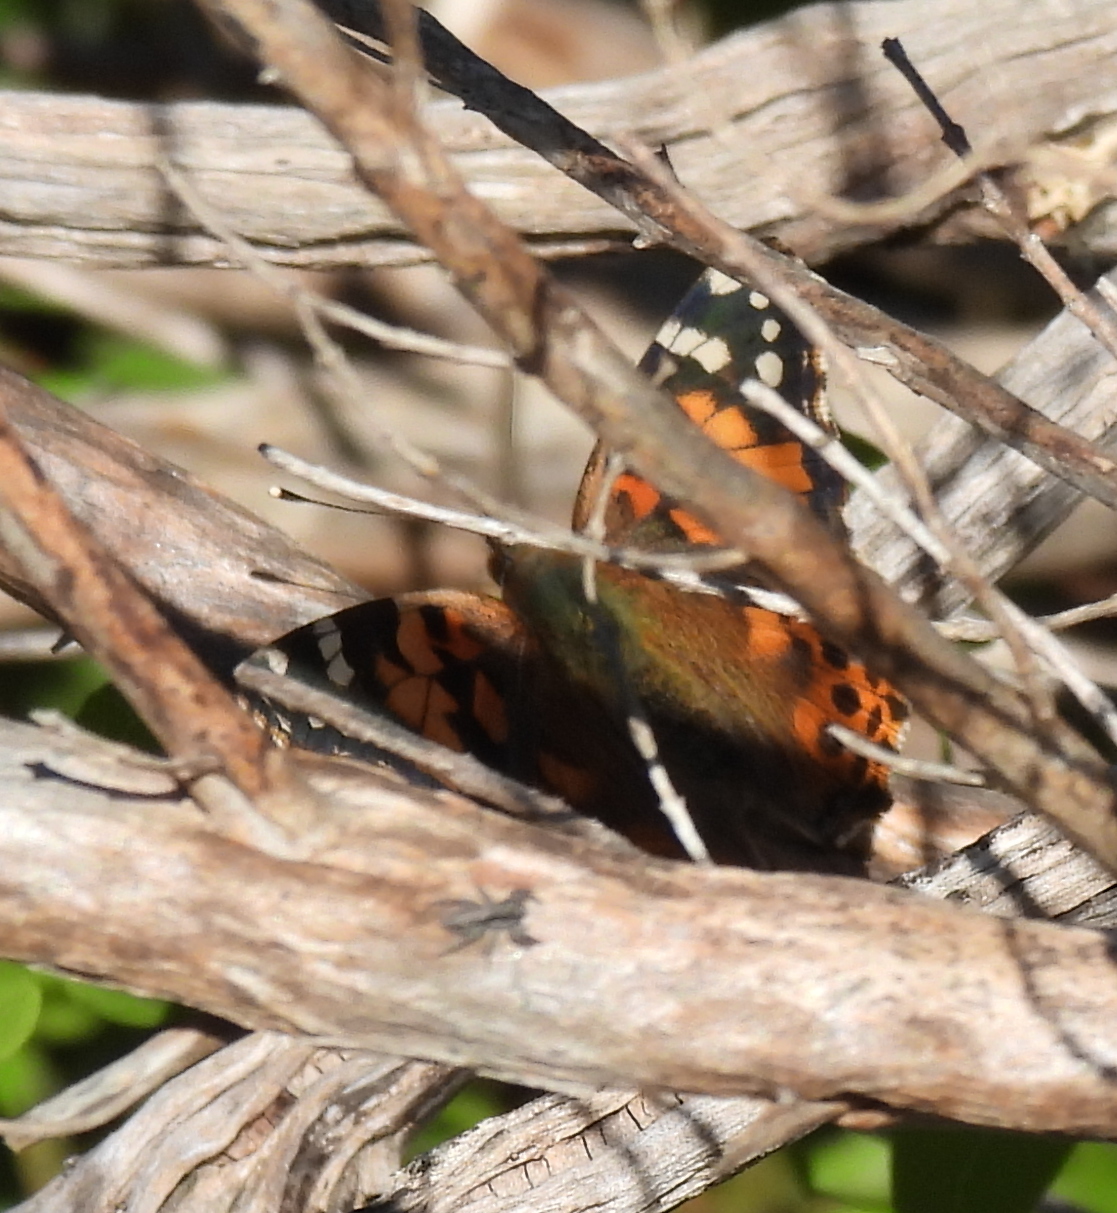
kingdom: Animalia
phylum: Arthropoda
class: Insecta
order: Lepidoptera
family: Nymphalidae
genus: Vanessa
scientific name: Vanessa cardui
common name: Painted lady
